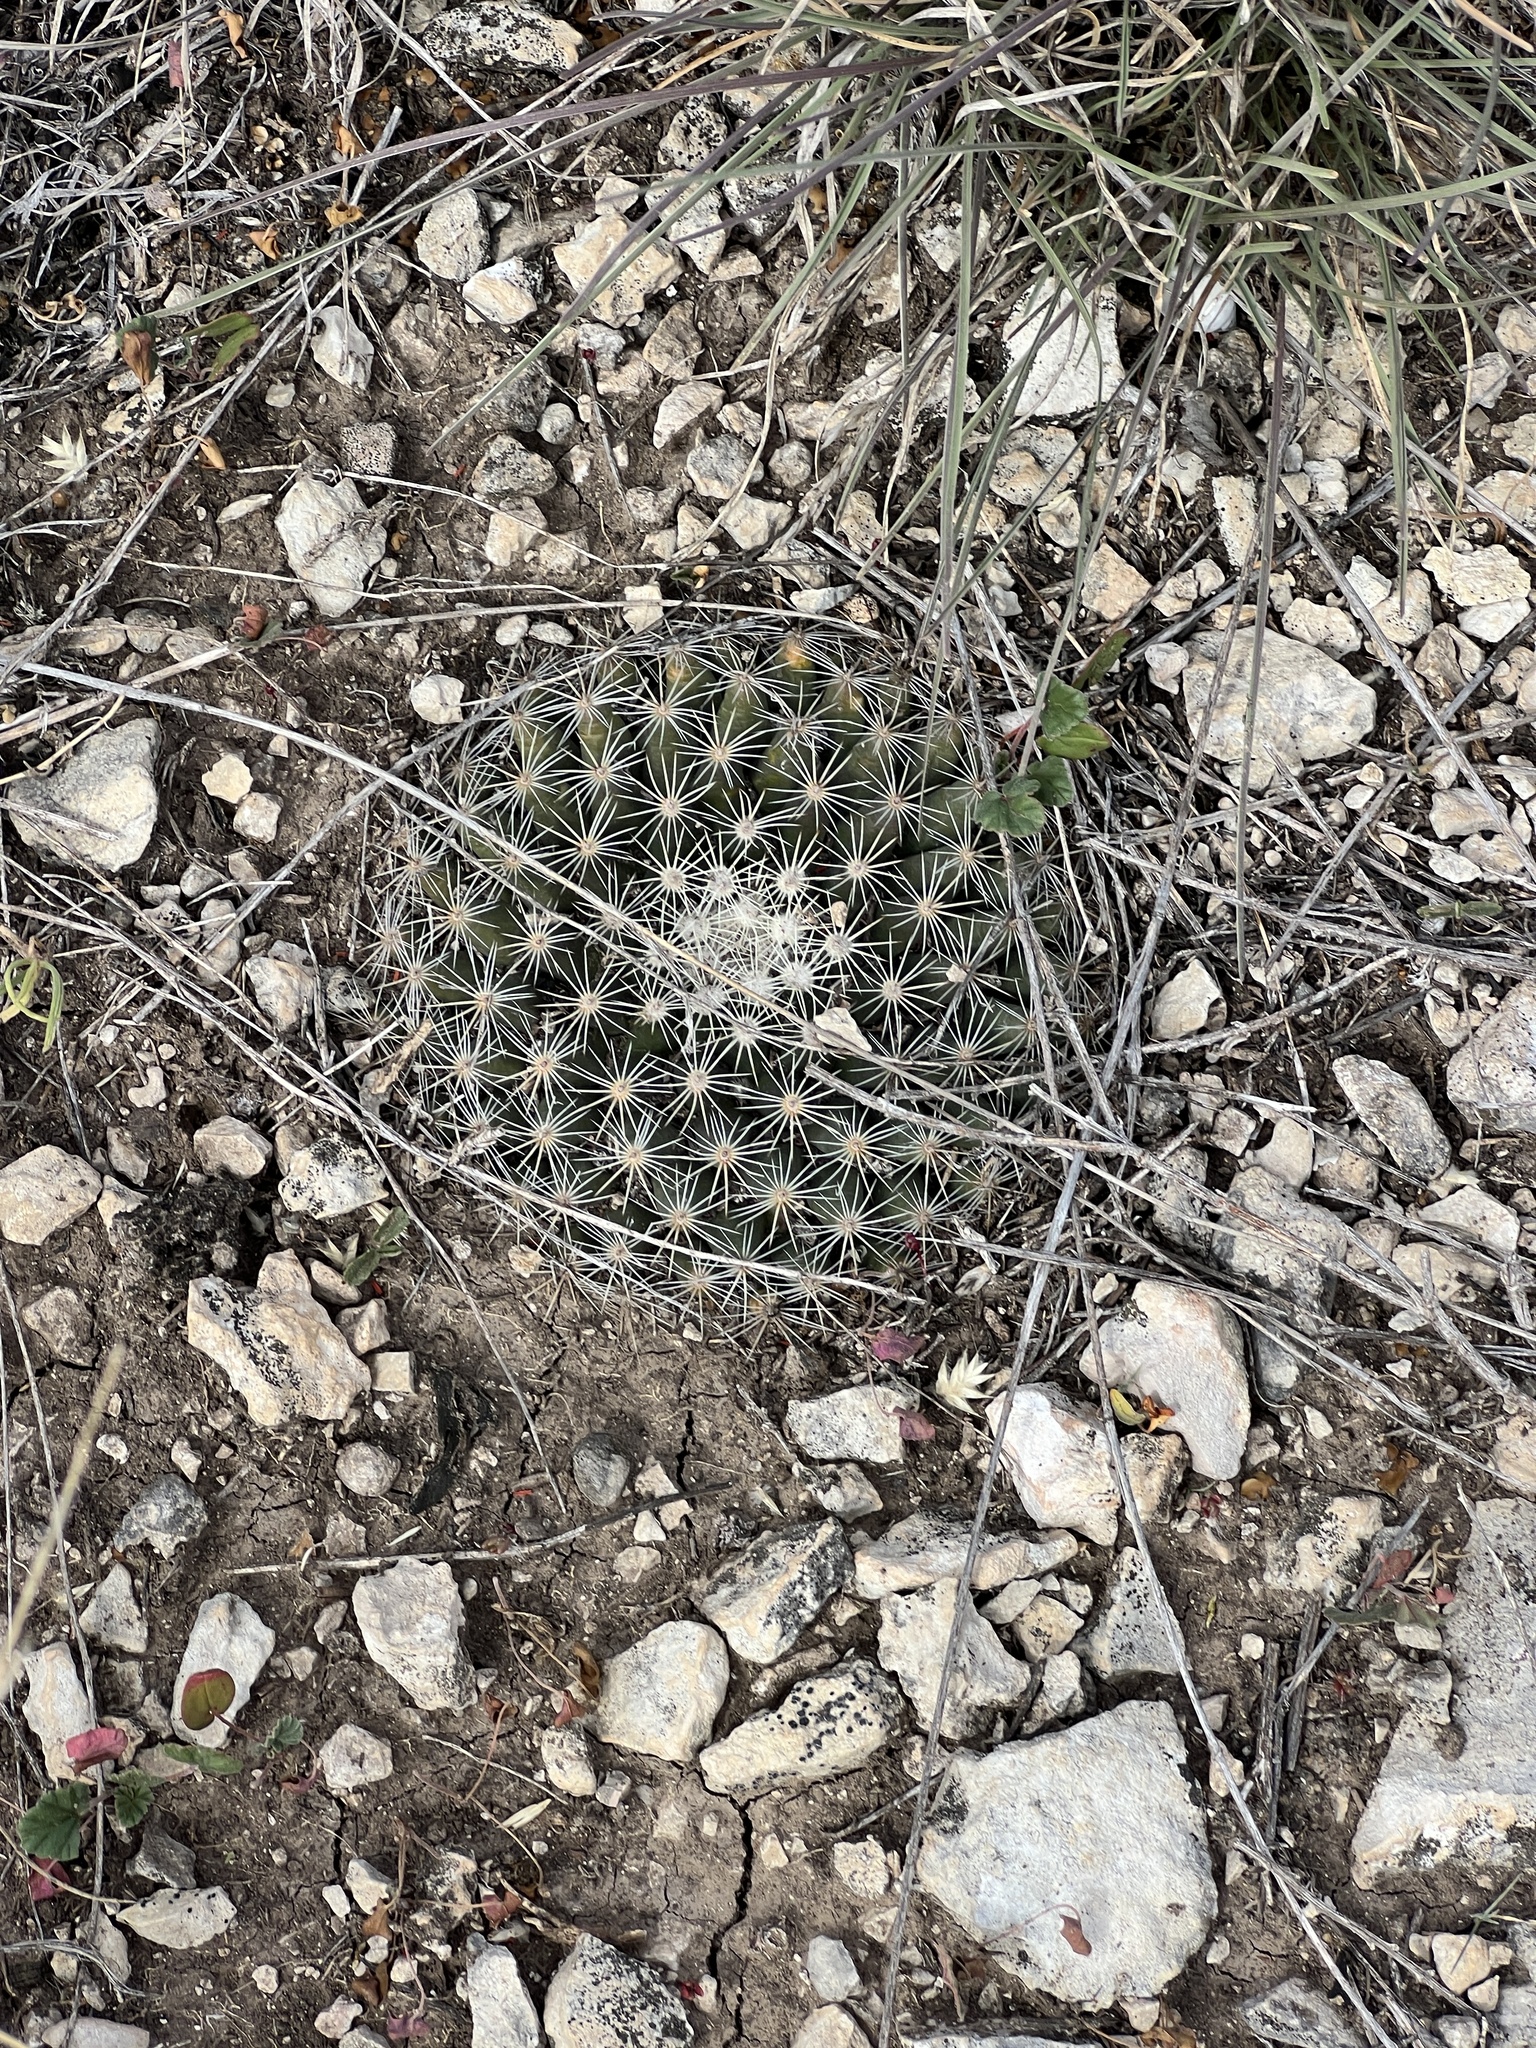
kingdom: Plantae
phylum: Tracheophyta
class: Magnoliopsida
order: Caryophyllales
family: Cactaceae
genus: Mammillaria
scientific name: Mammillaria heyderi
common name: Little nipple cactus
